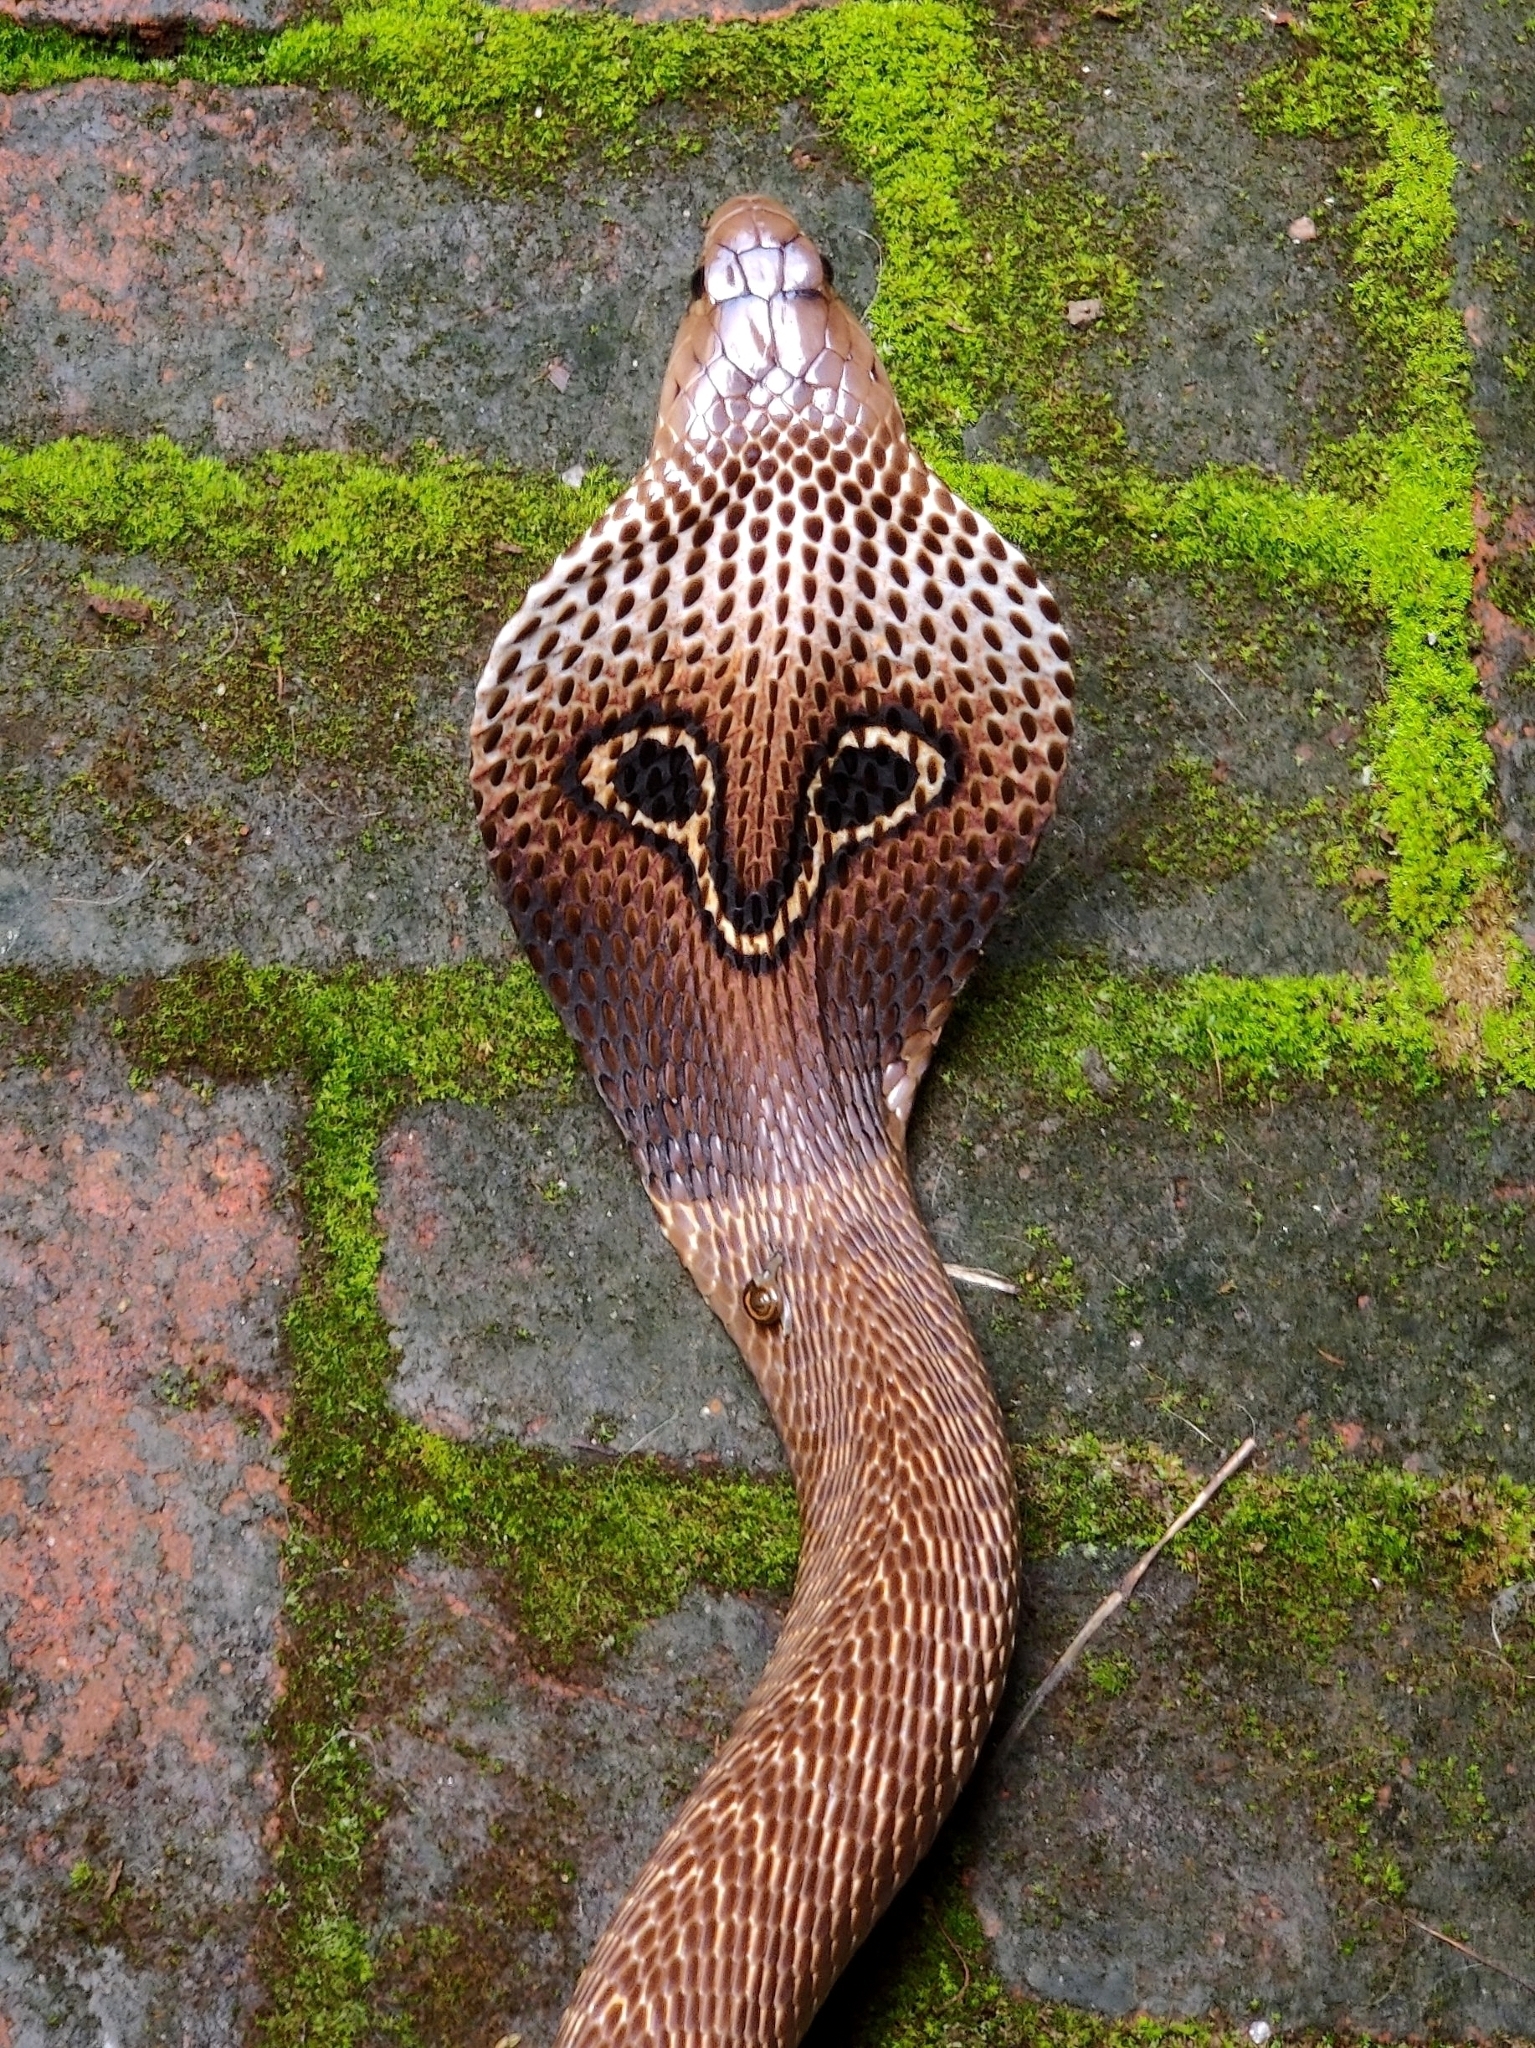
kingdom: Animalia
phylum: Chordata
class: Squamata
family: Elapidae
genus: Naja
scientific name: Naja naja
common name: Indian cobra
